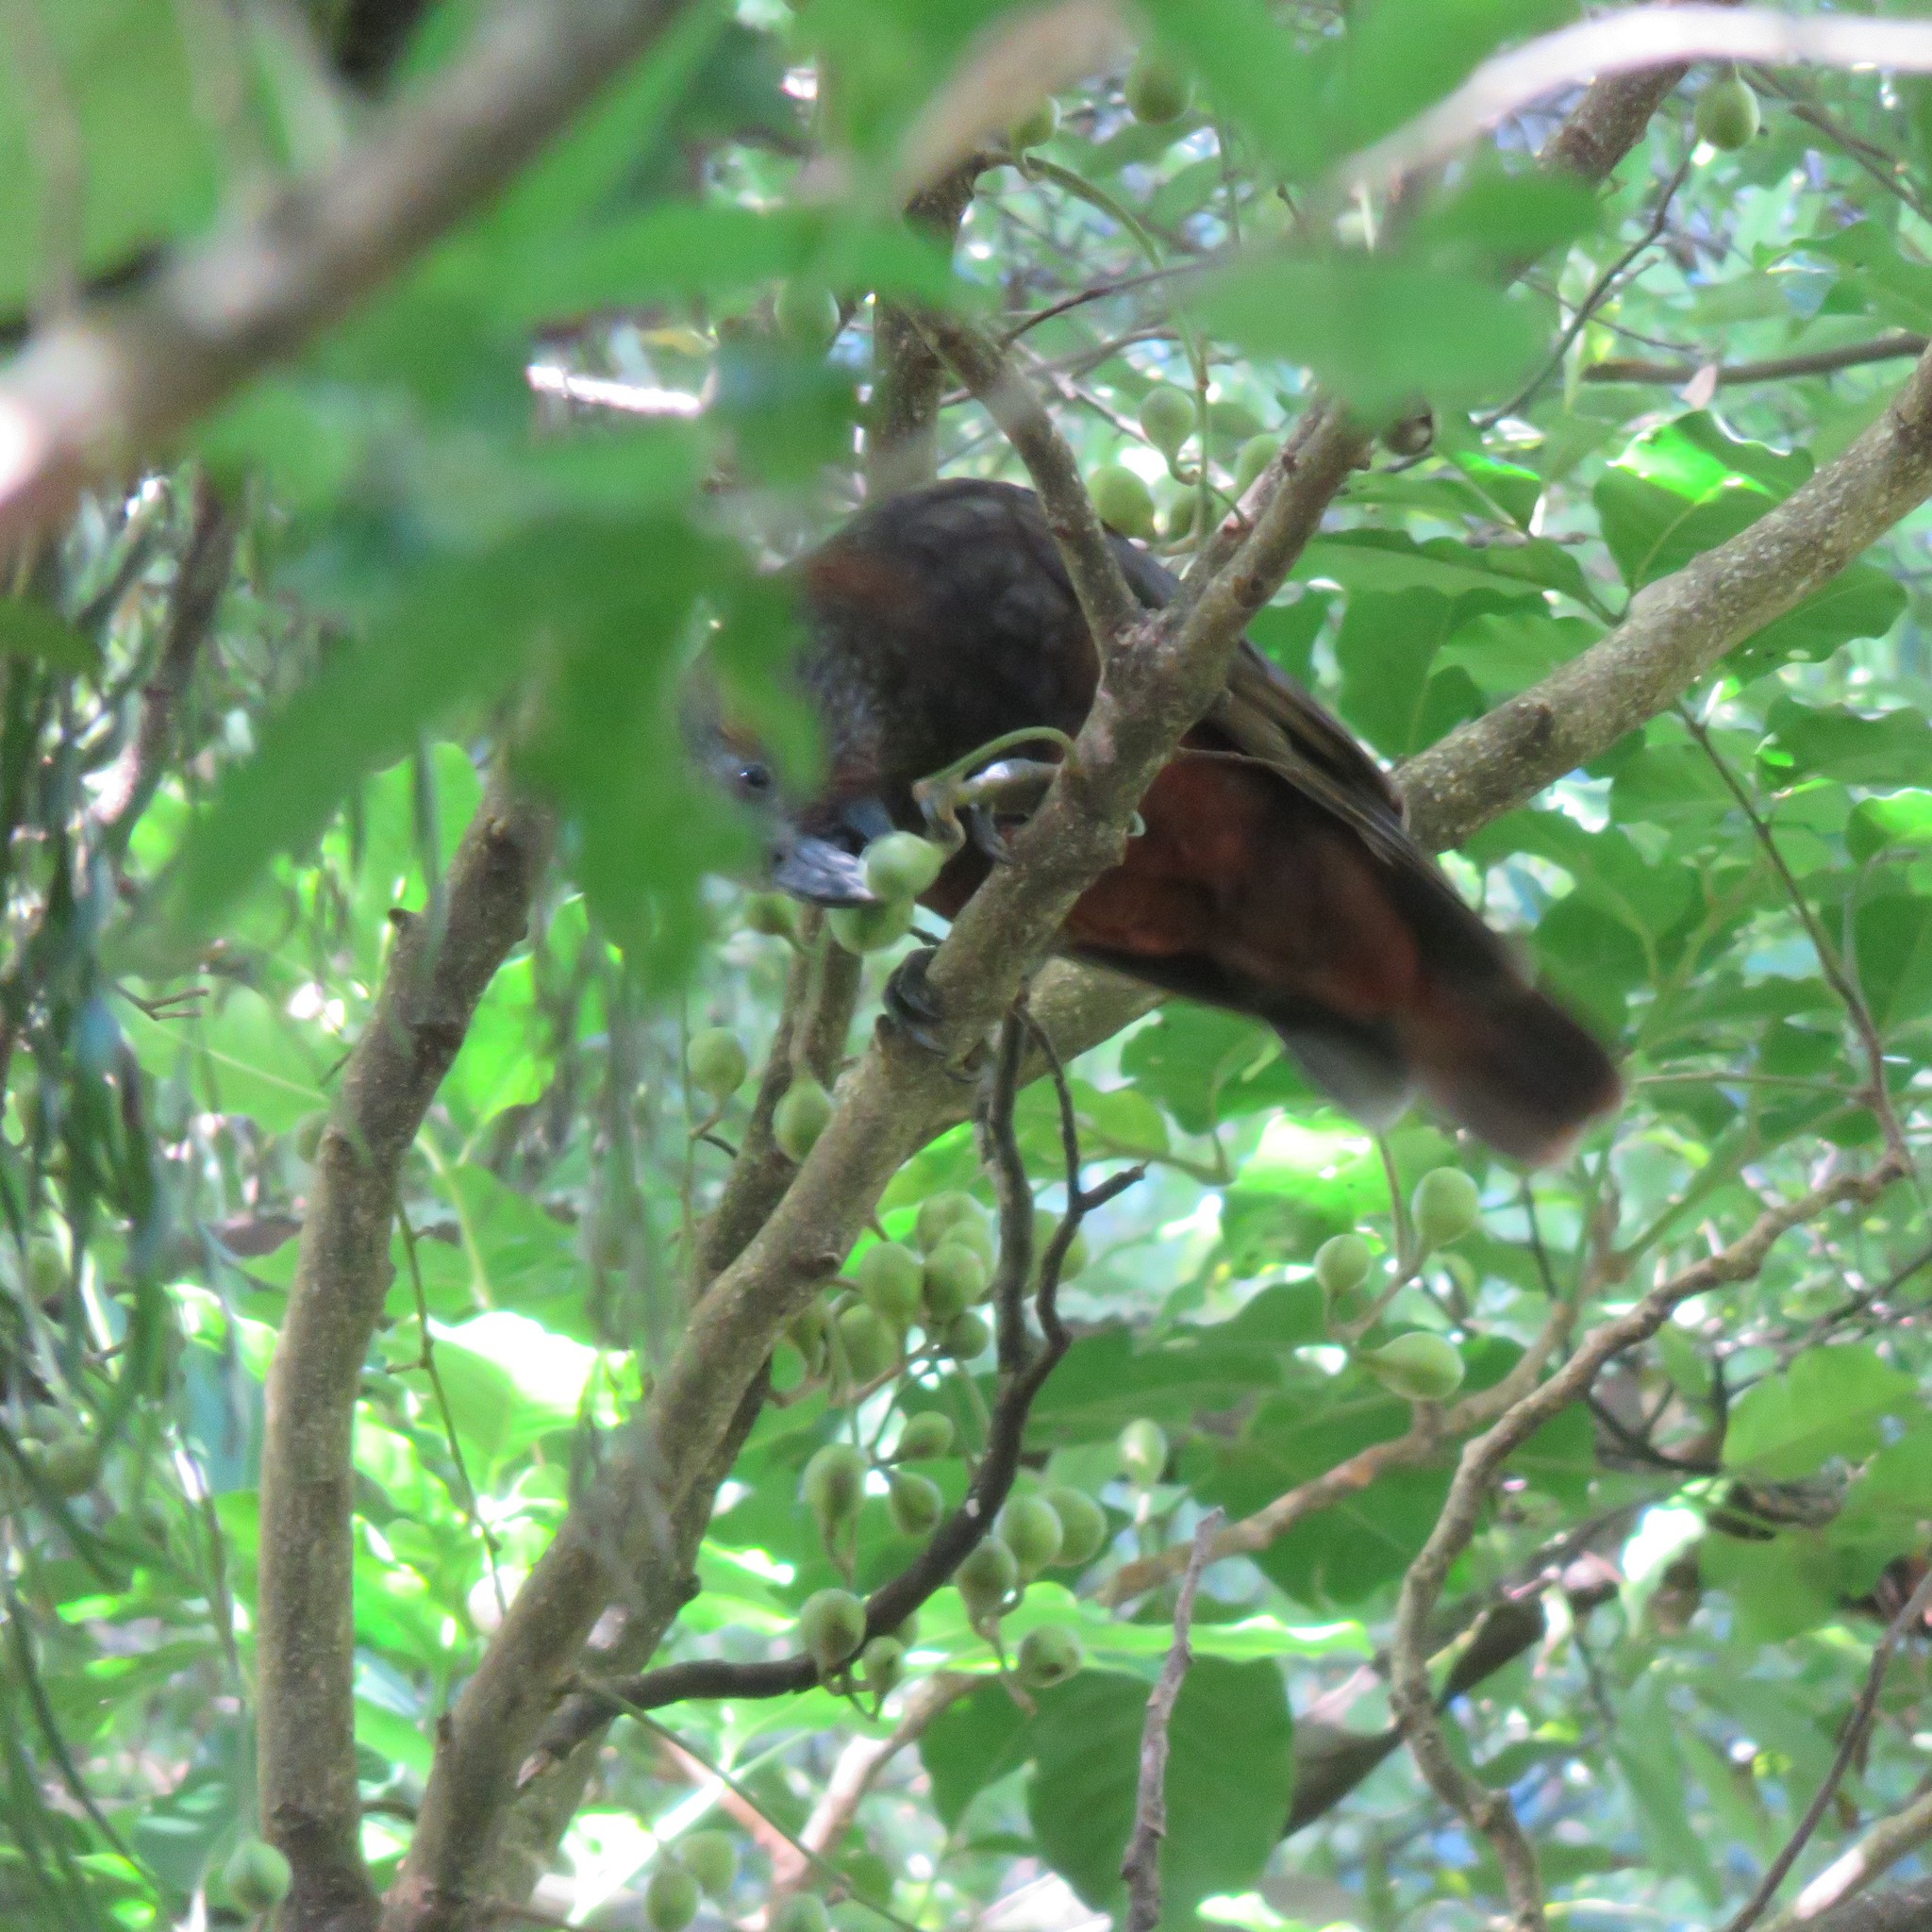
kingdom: Plantae
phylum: Tracheophyta
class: Magnoliopsida
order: Sapindales
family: Meliaceae
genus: Didymocheton
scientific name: Didymocheton spectabilis
